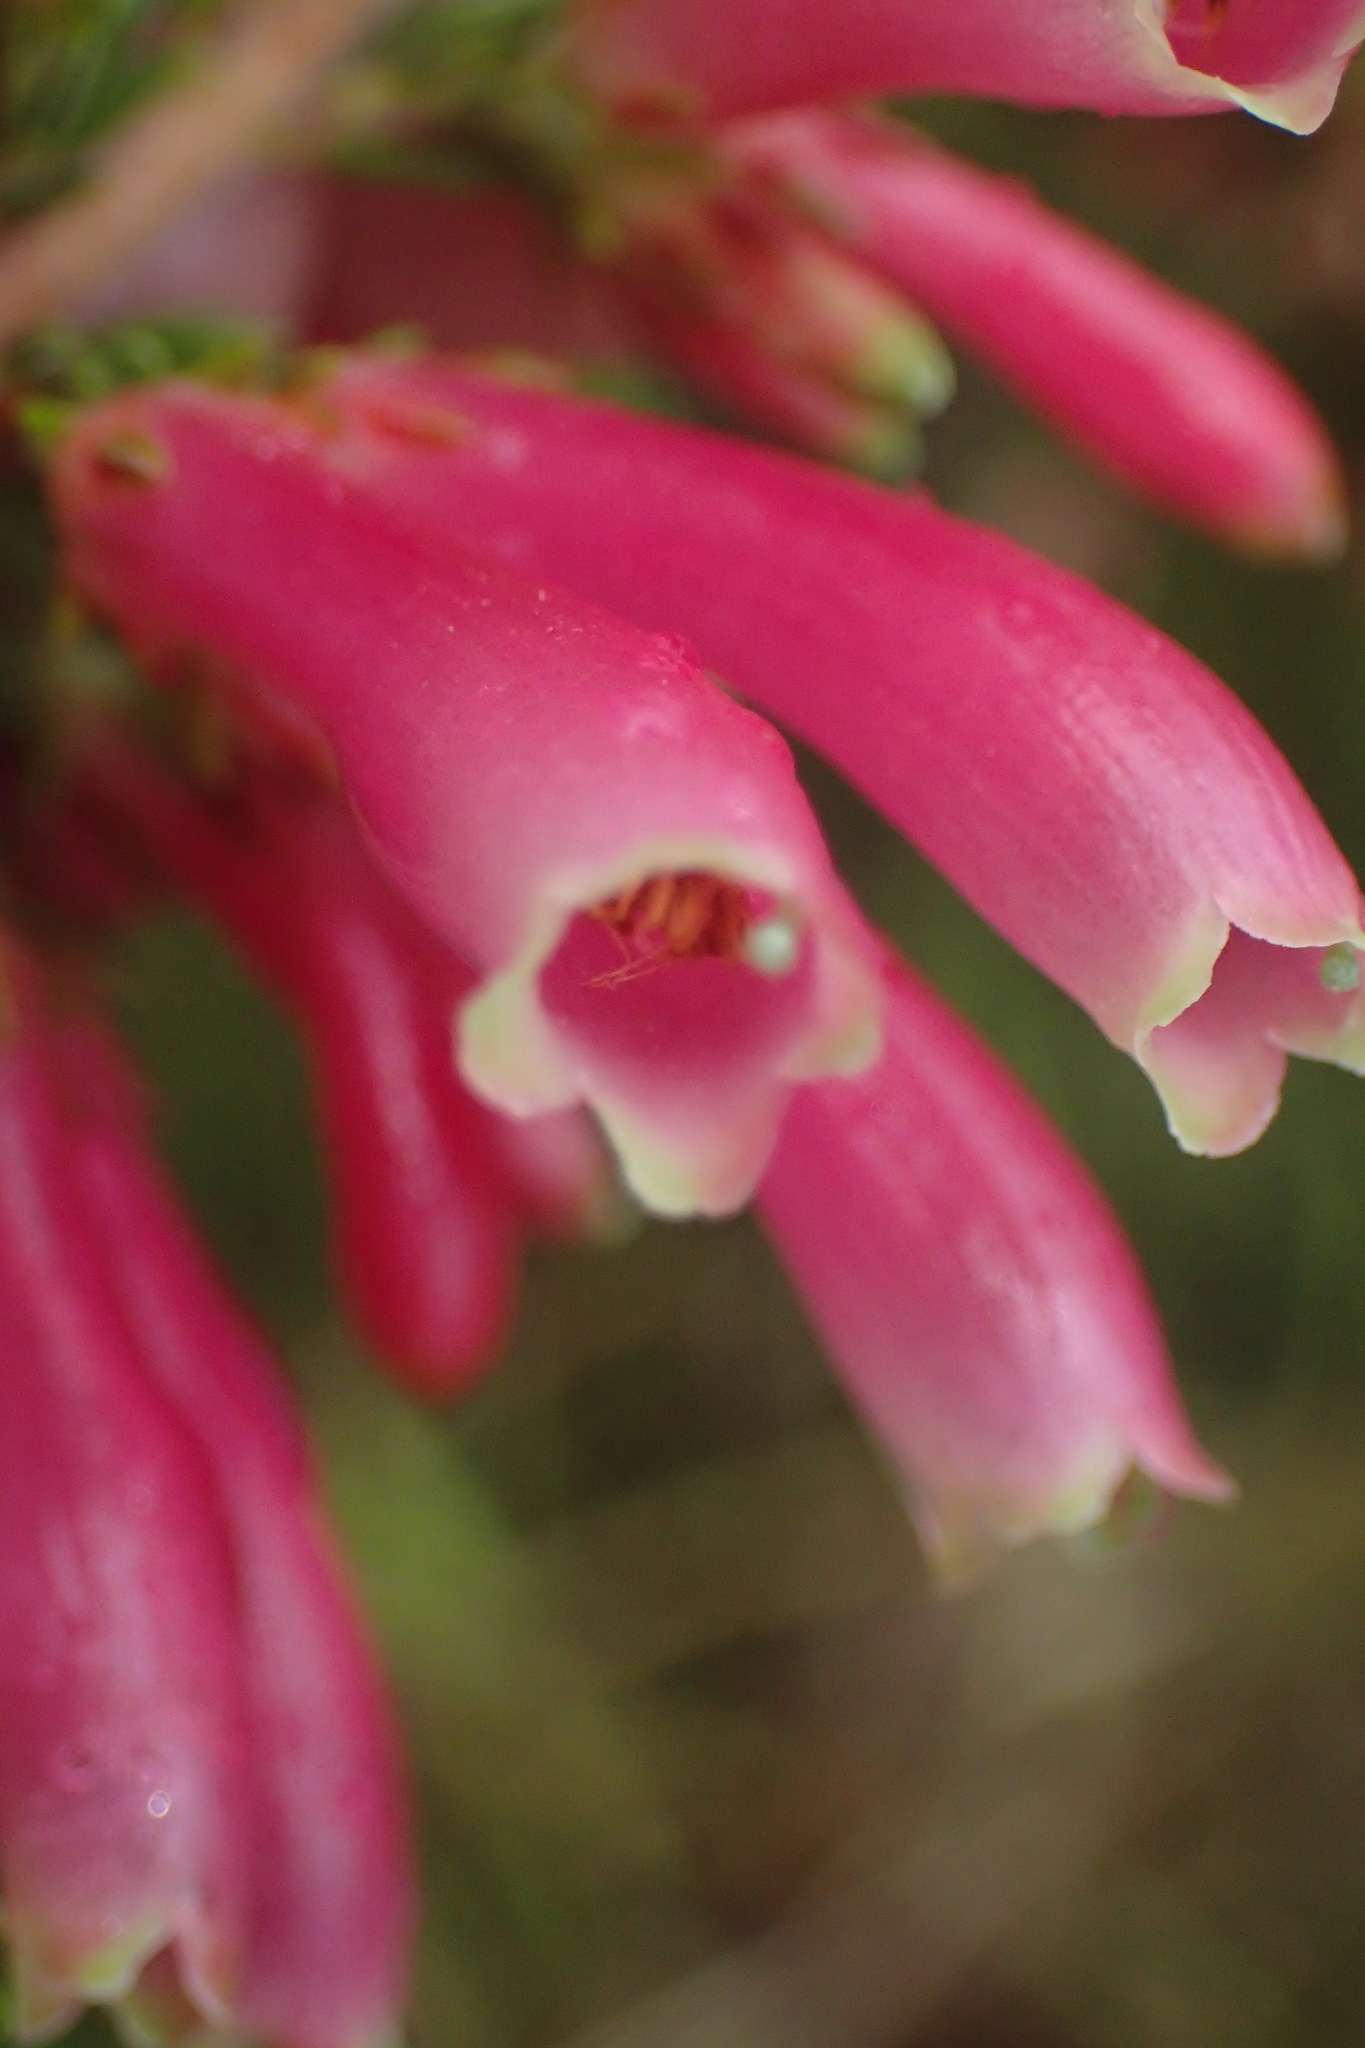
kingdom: Plantae
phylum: Tracheophyta
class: Magnoliopsida
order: Ericales
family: Ericaceae
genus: Erica
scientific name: Erica discolor
